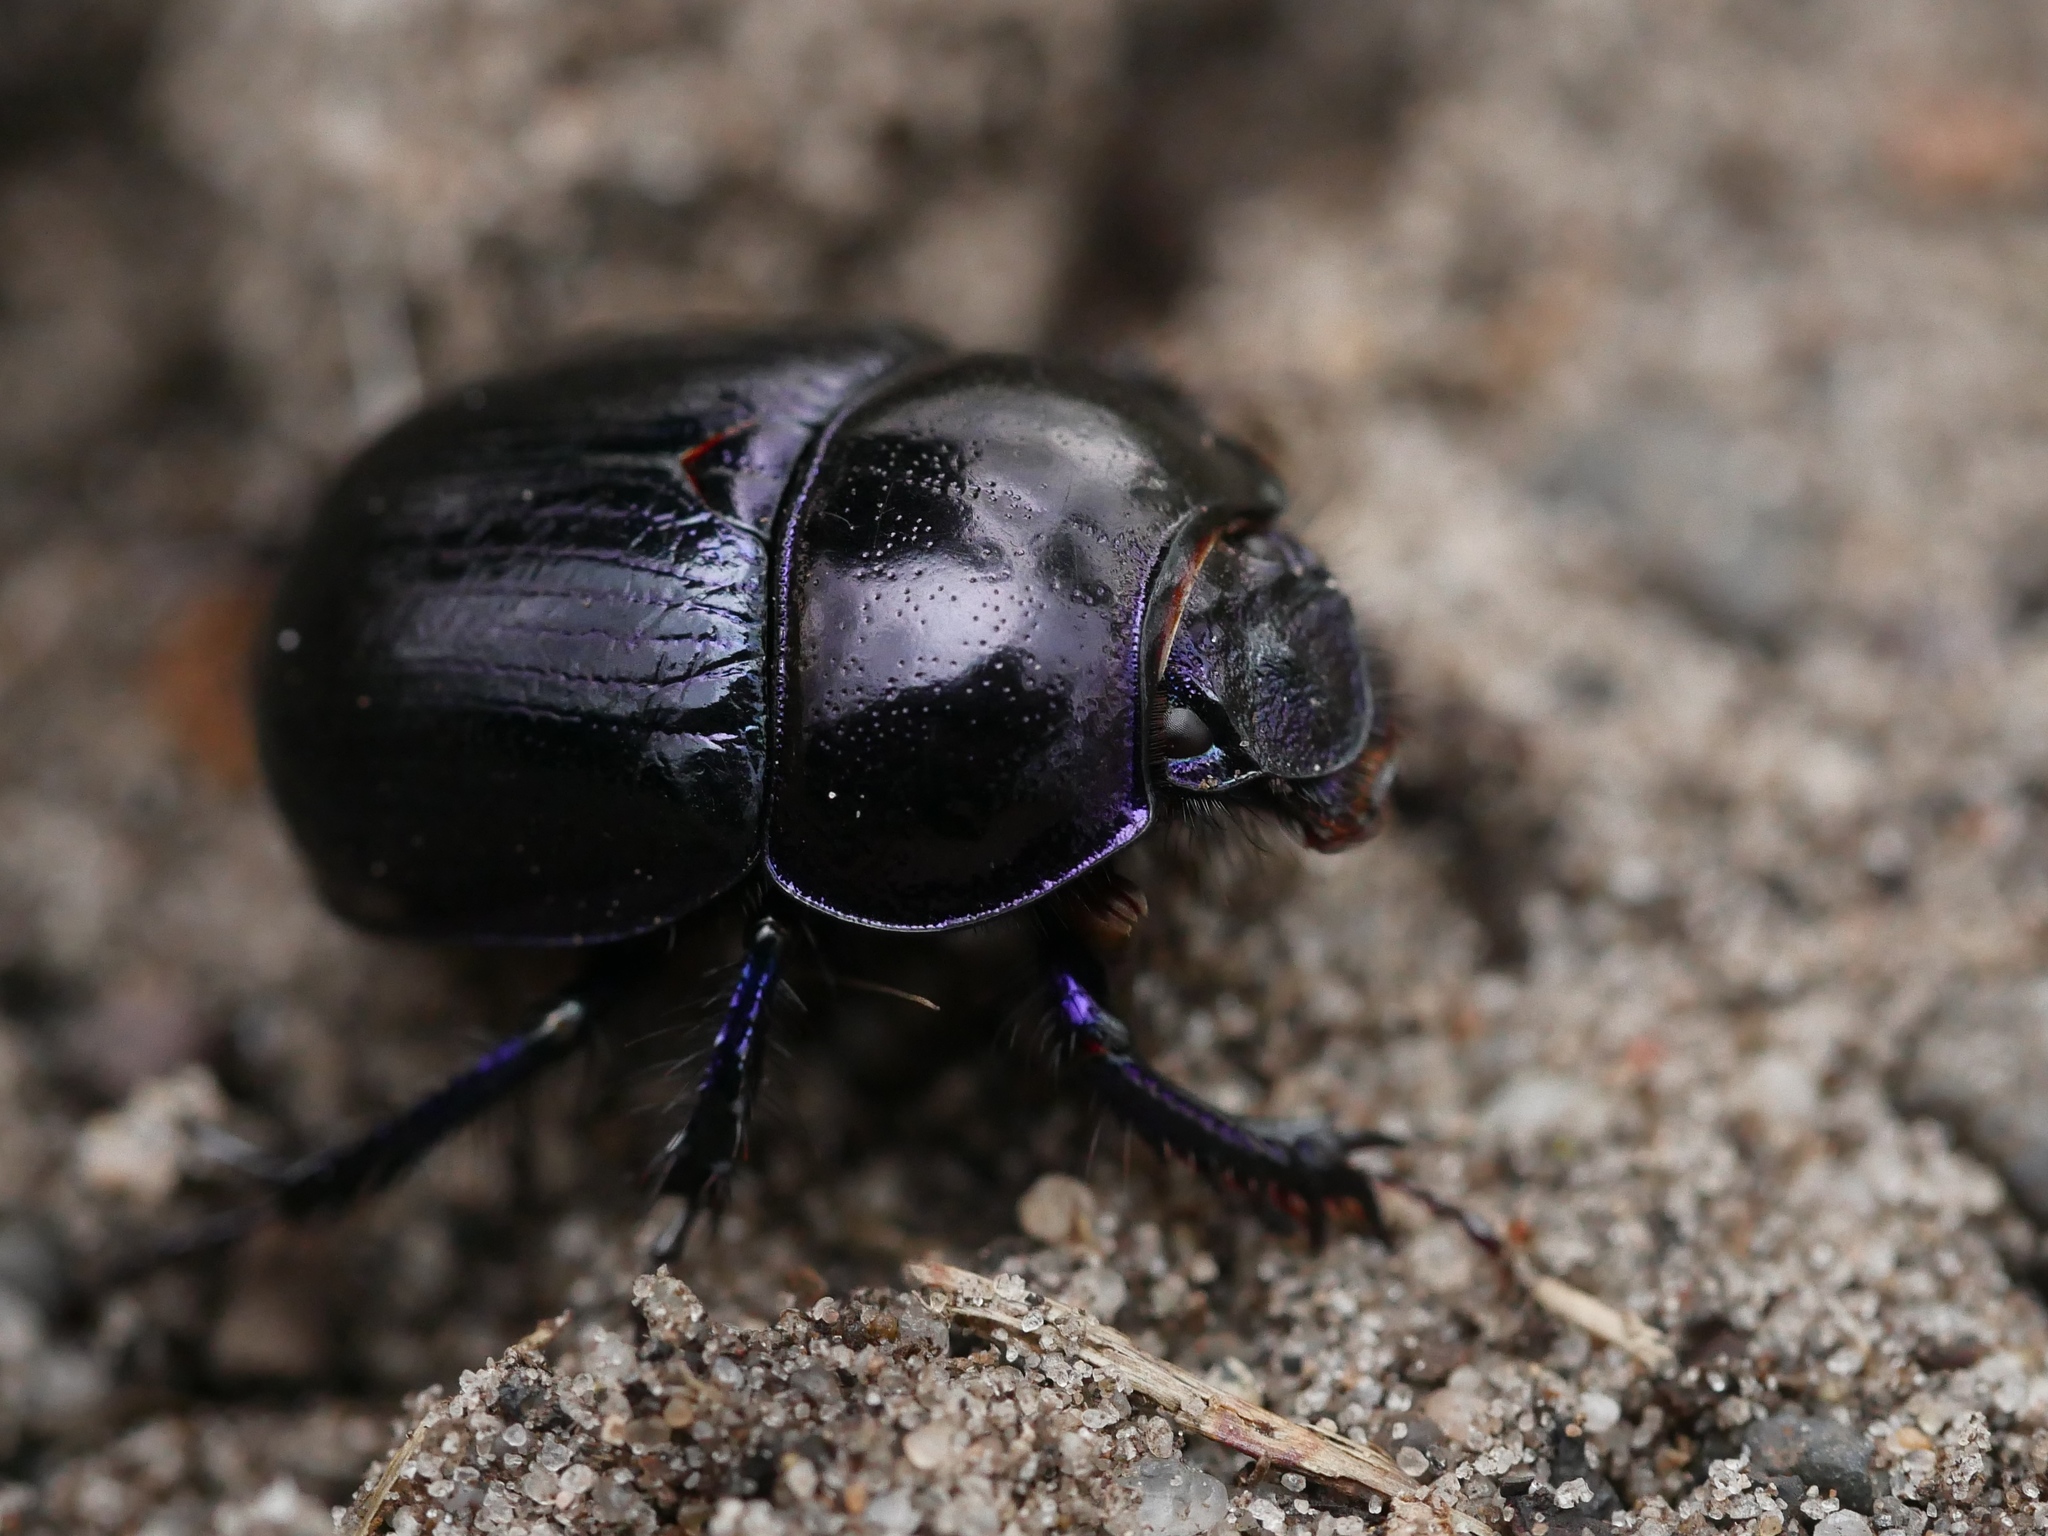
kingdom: Animalia
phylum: Arthropoda
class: Insecta
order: Coleoptera
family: Geotrupidae
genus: Anoplotrupes
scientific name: Anoplotrupes stercorosus
